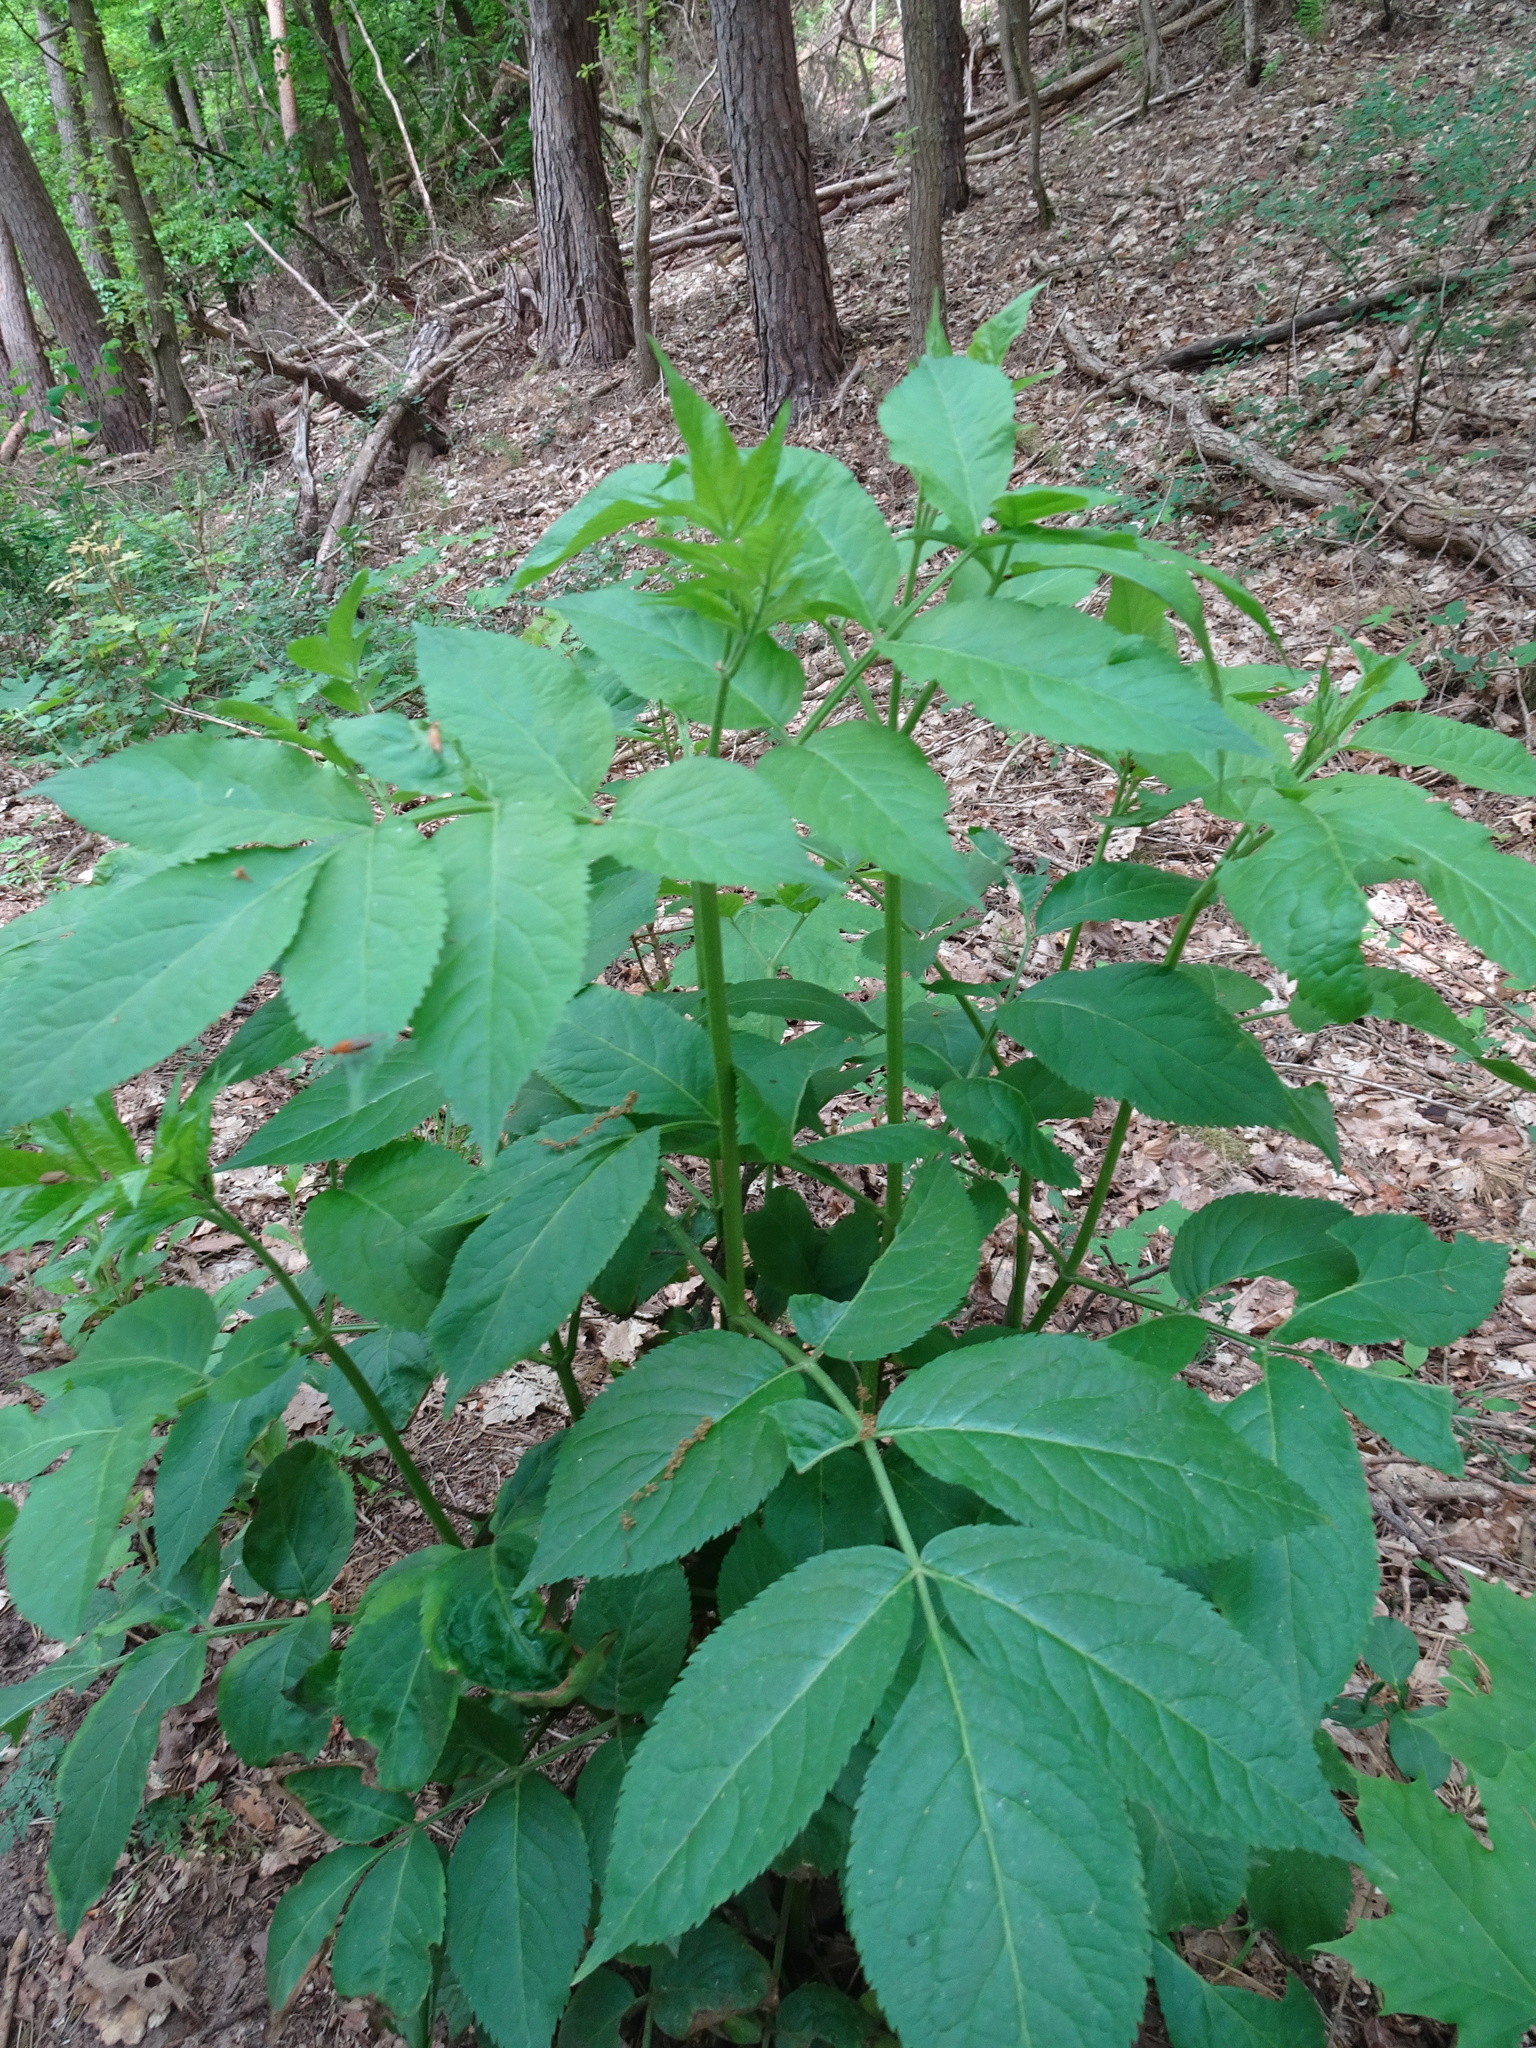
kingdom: Plantae
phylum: Tracheophyta
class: Magnoliopsida
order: Dipsacales
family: Viburnaceae
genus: Sambucus
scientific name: Sambucus nigra
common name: Elder
